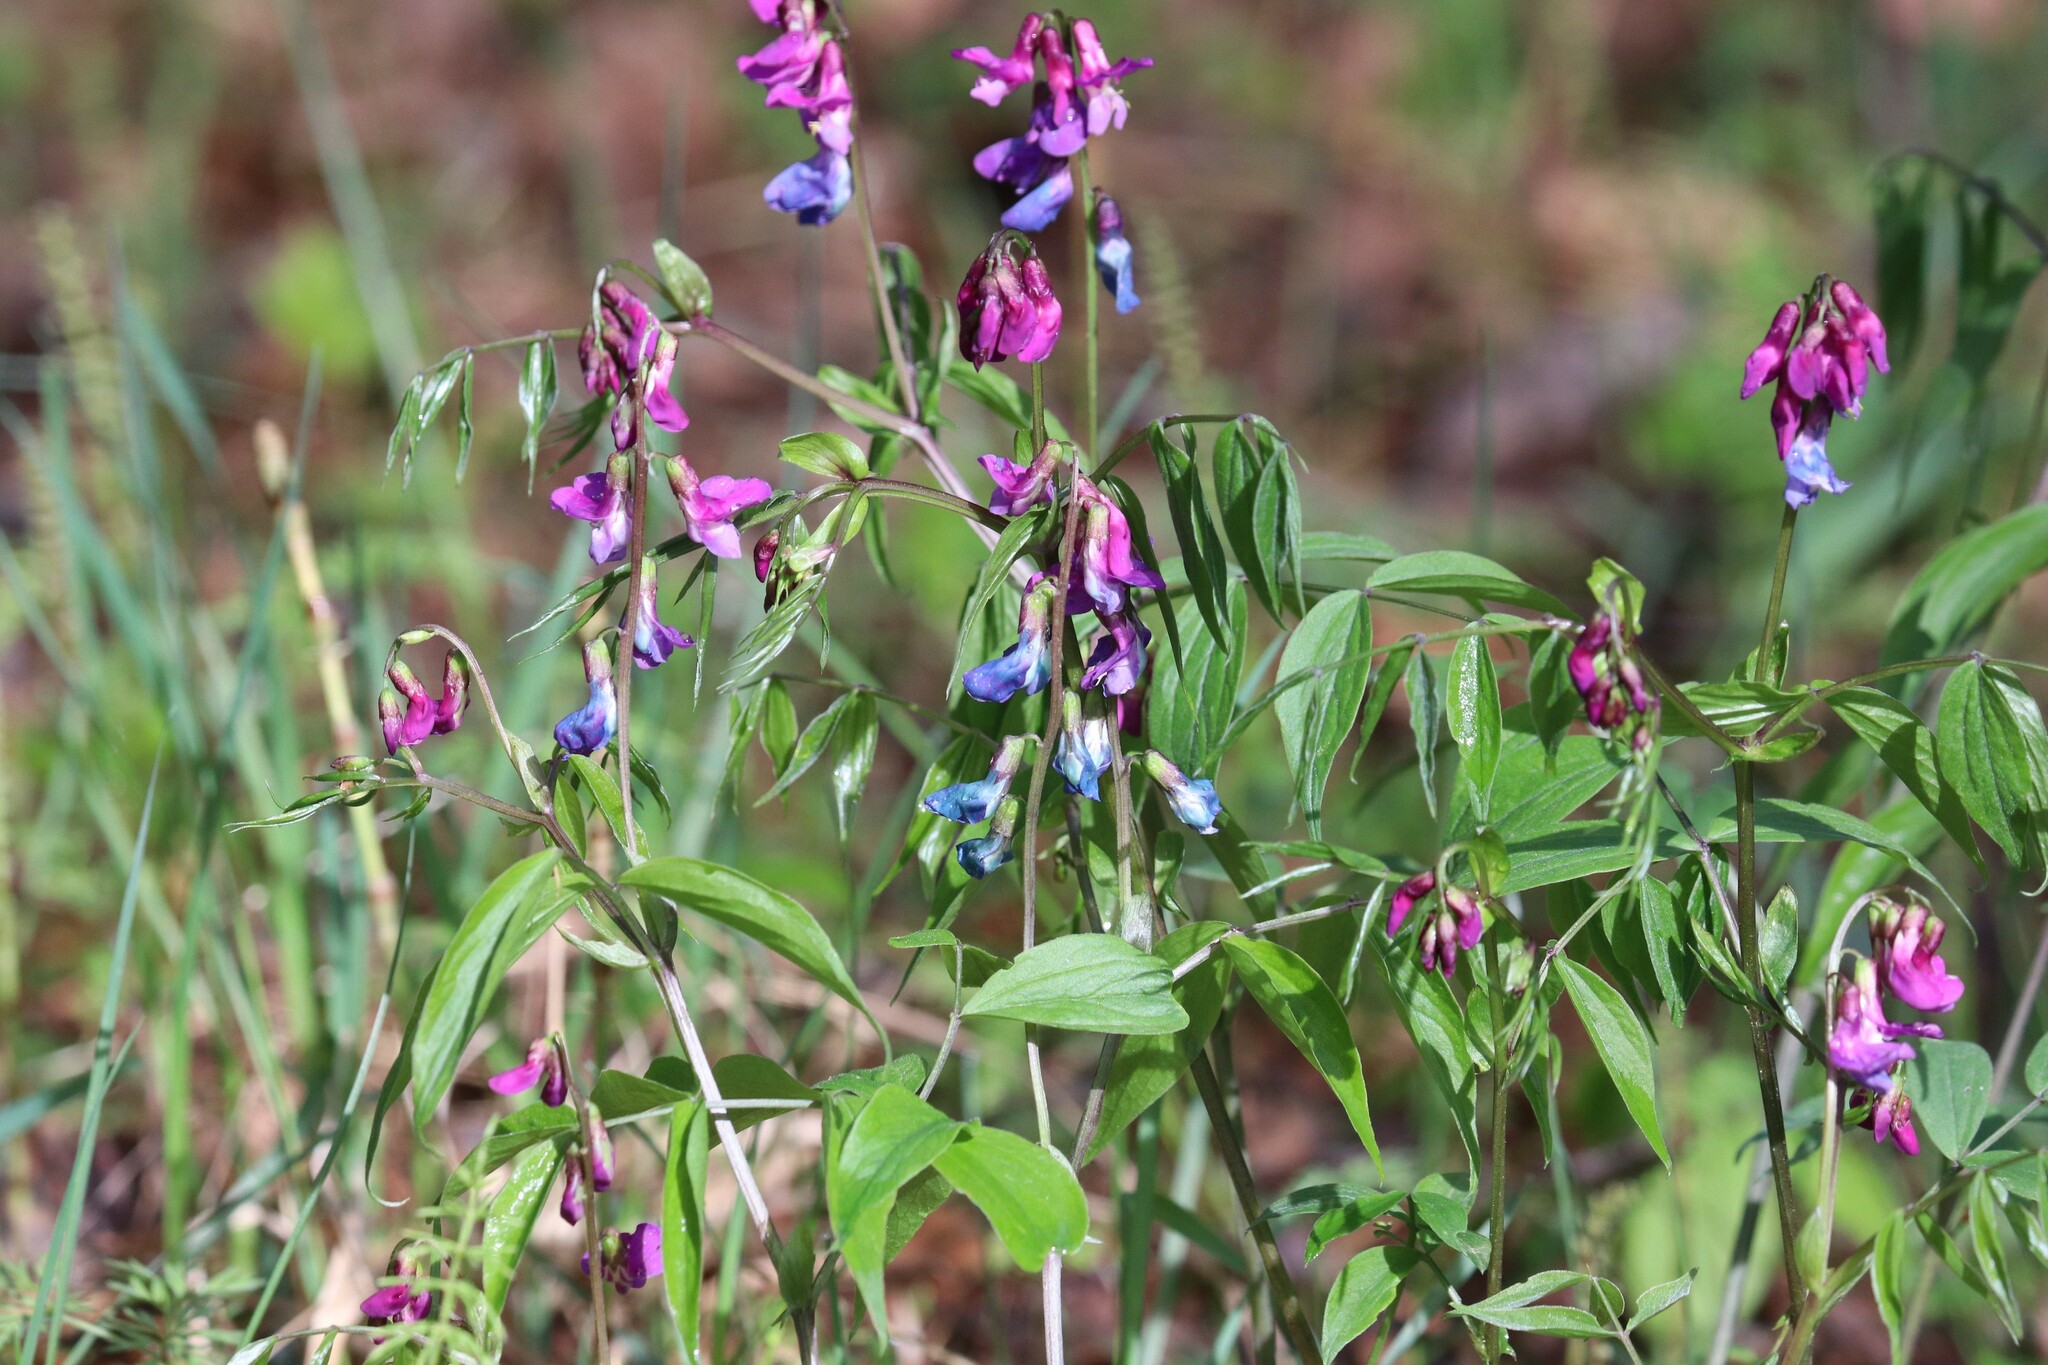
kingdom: Plantae
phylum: Tracheophyta
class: Magnoliopsida
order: Fabales
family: Fabaceae
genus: Lathyrus
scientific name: Lathyrus vernus
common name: Spring pea
